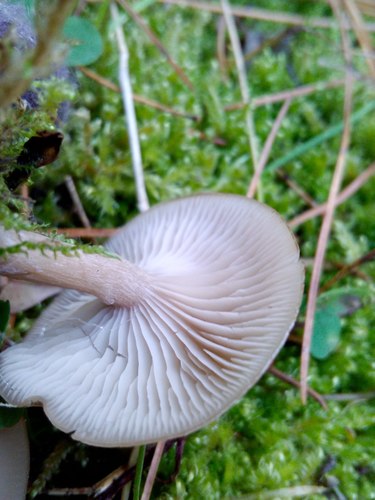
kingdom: Fungi
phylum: Basidiomycota
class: Agaricomycetes
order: Agaricales
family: Tricholomataceae
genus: Clitocybe
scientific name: Clitocybe
